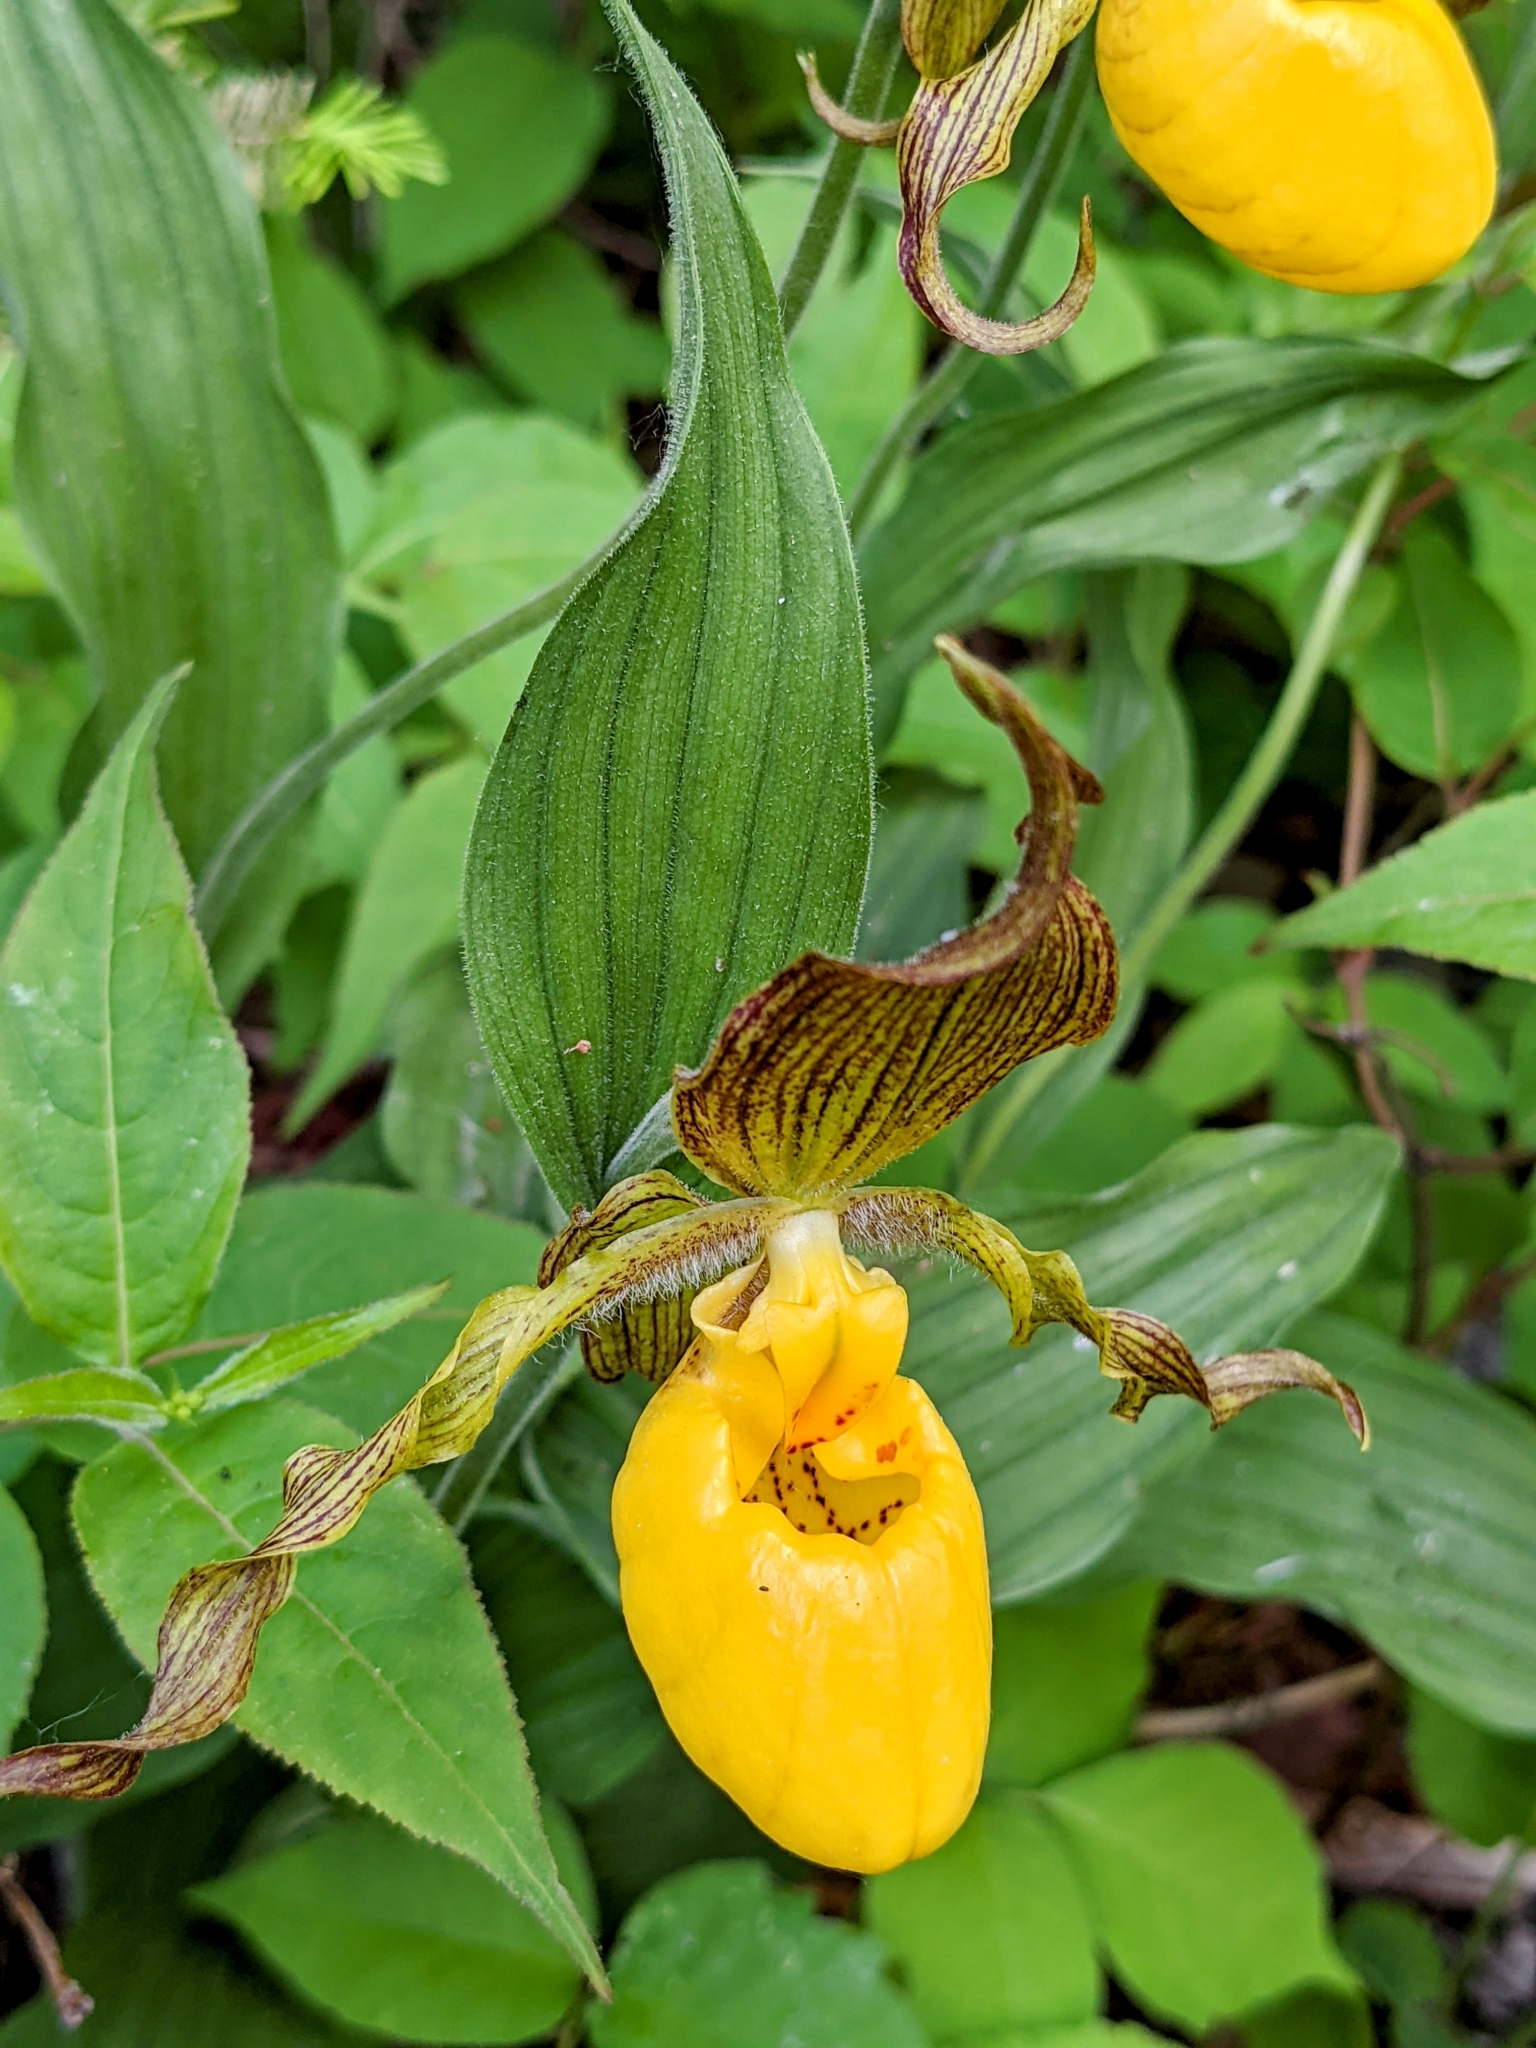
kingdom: Plantae
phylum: Tracheophyta
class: Liliopsida
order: Asparagales
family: Orchidaceae
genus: Cypripedium
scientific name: Cypripedium parviflorum
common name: American yellow lady's-slipper
